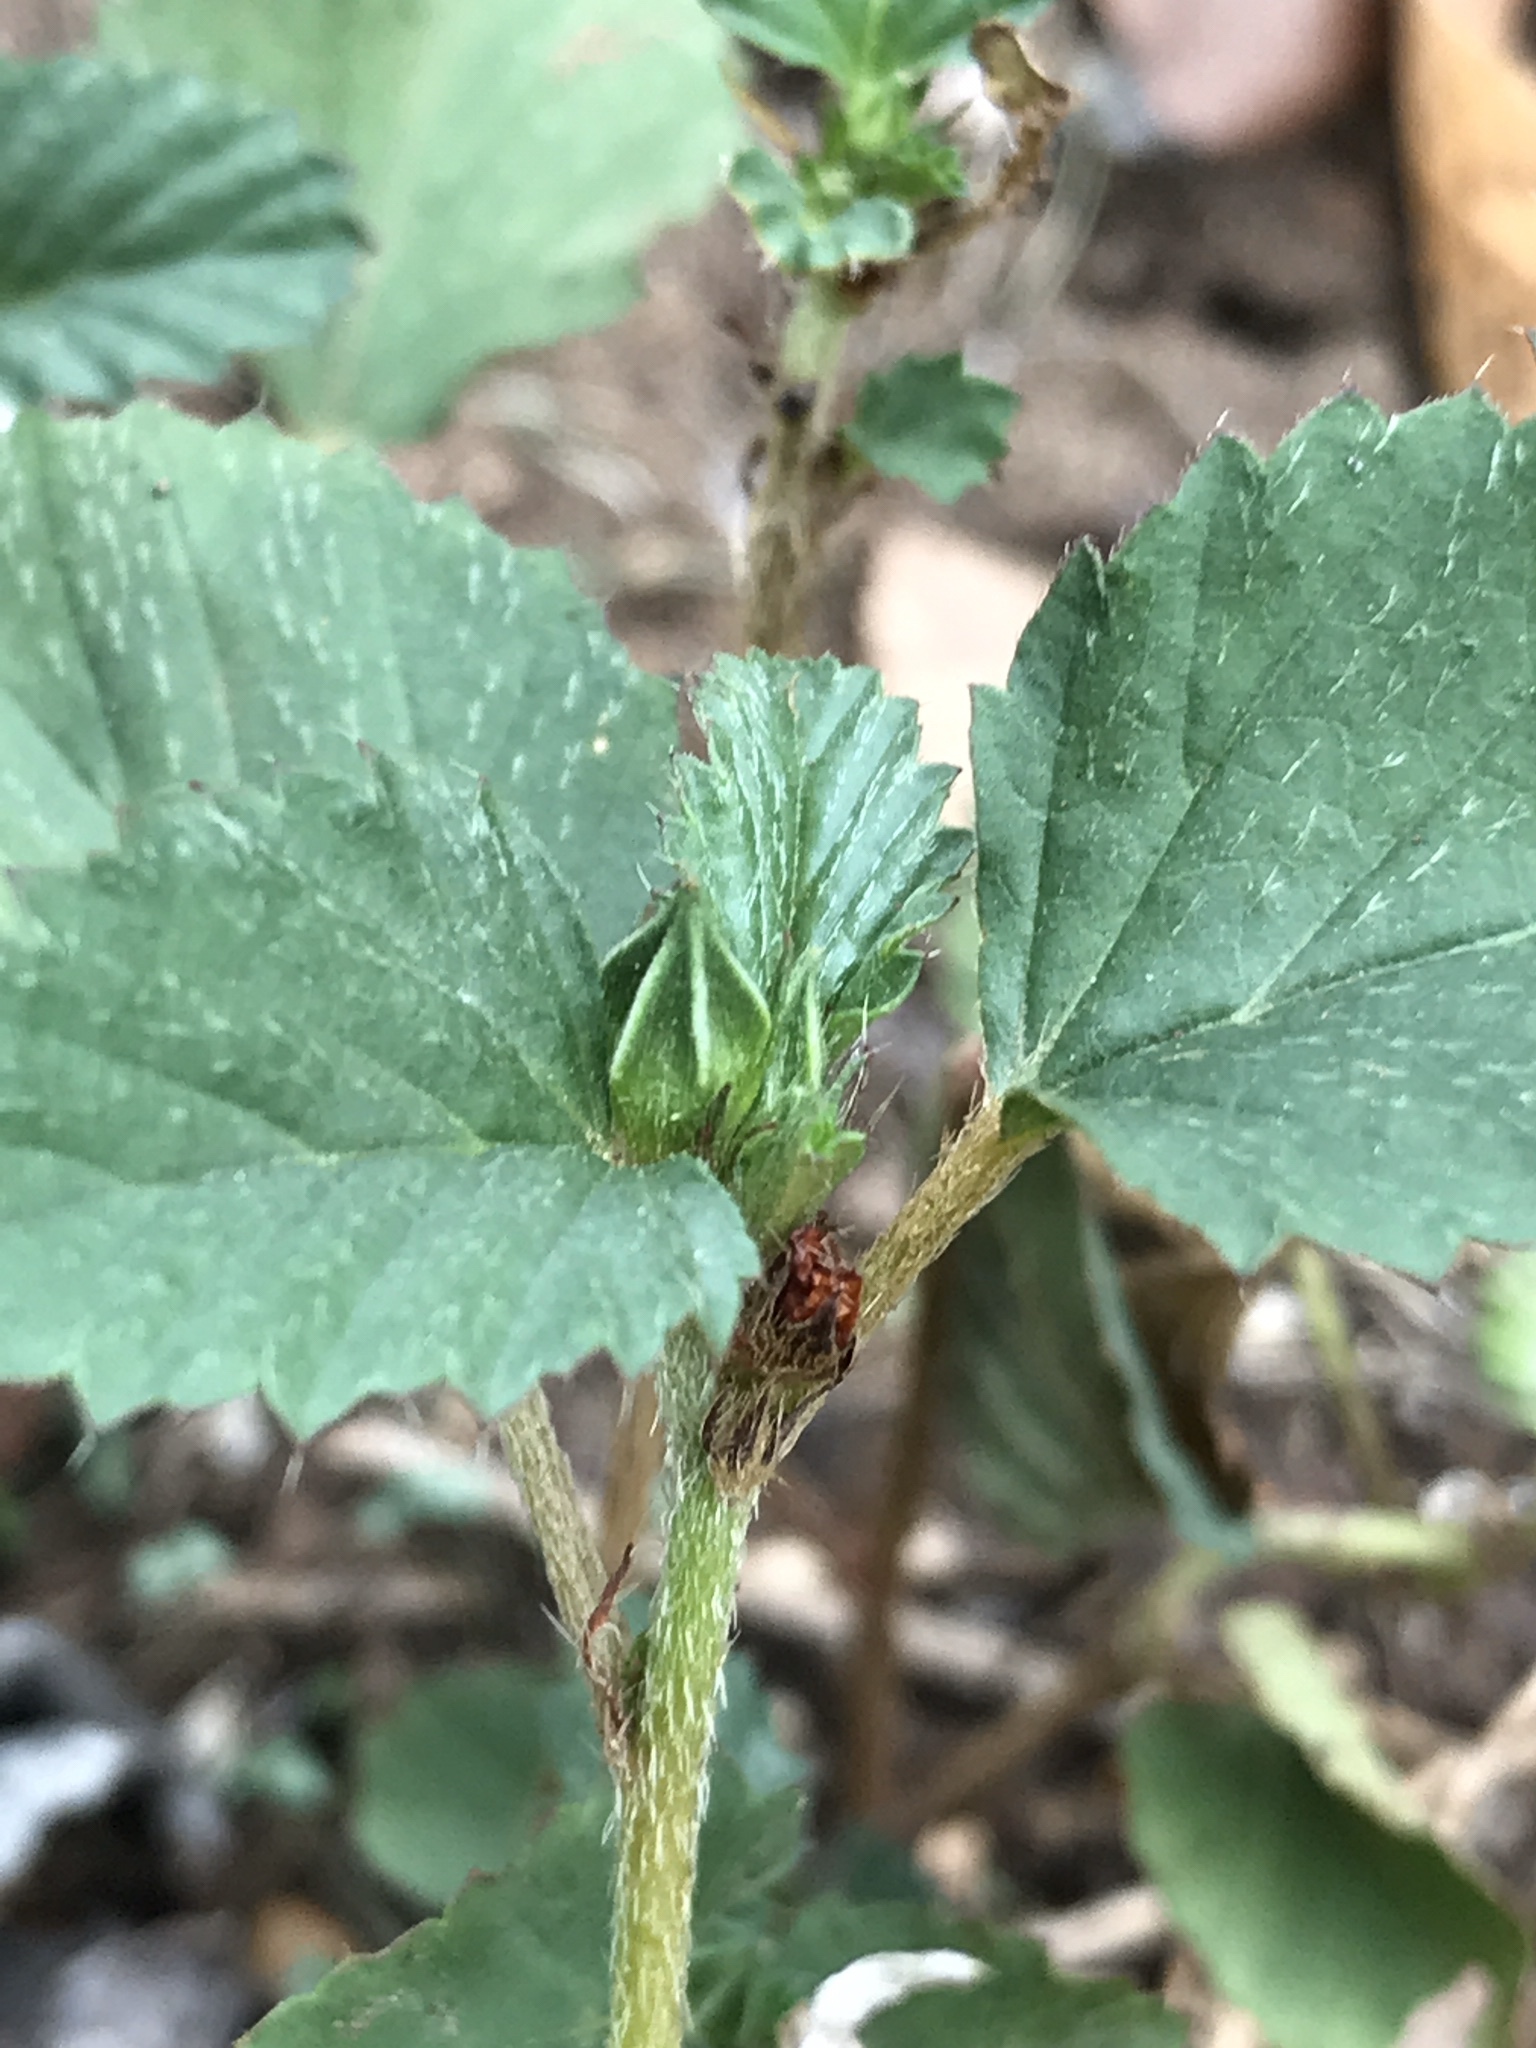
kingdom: Plantae
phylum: Tracheophyta
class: Magnoliopsida
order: Malvales
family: Malvaceae
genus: Malvastrum
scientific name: Malvastrum coromandelianum
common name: Threelobe false mallow
